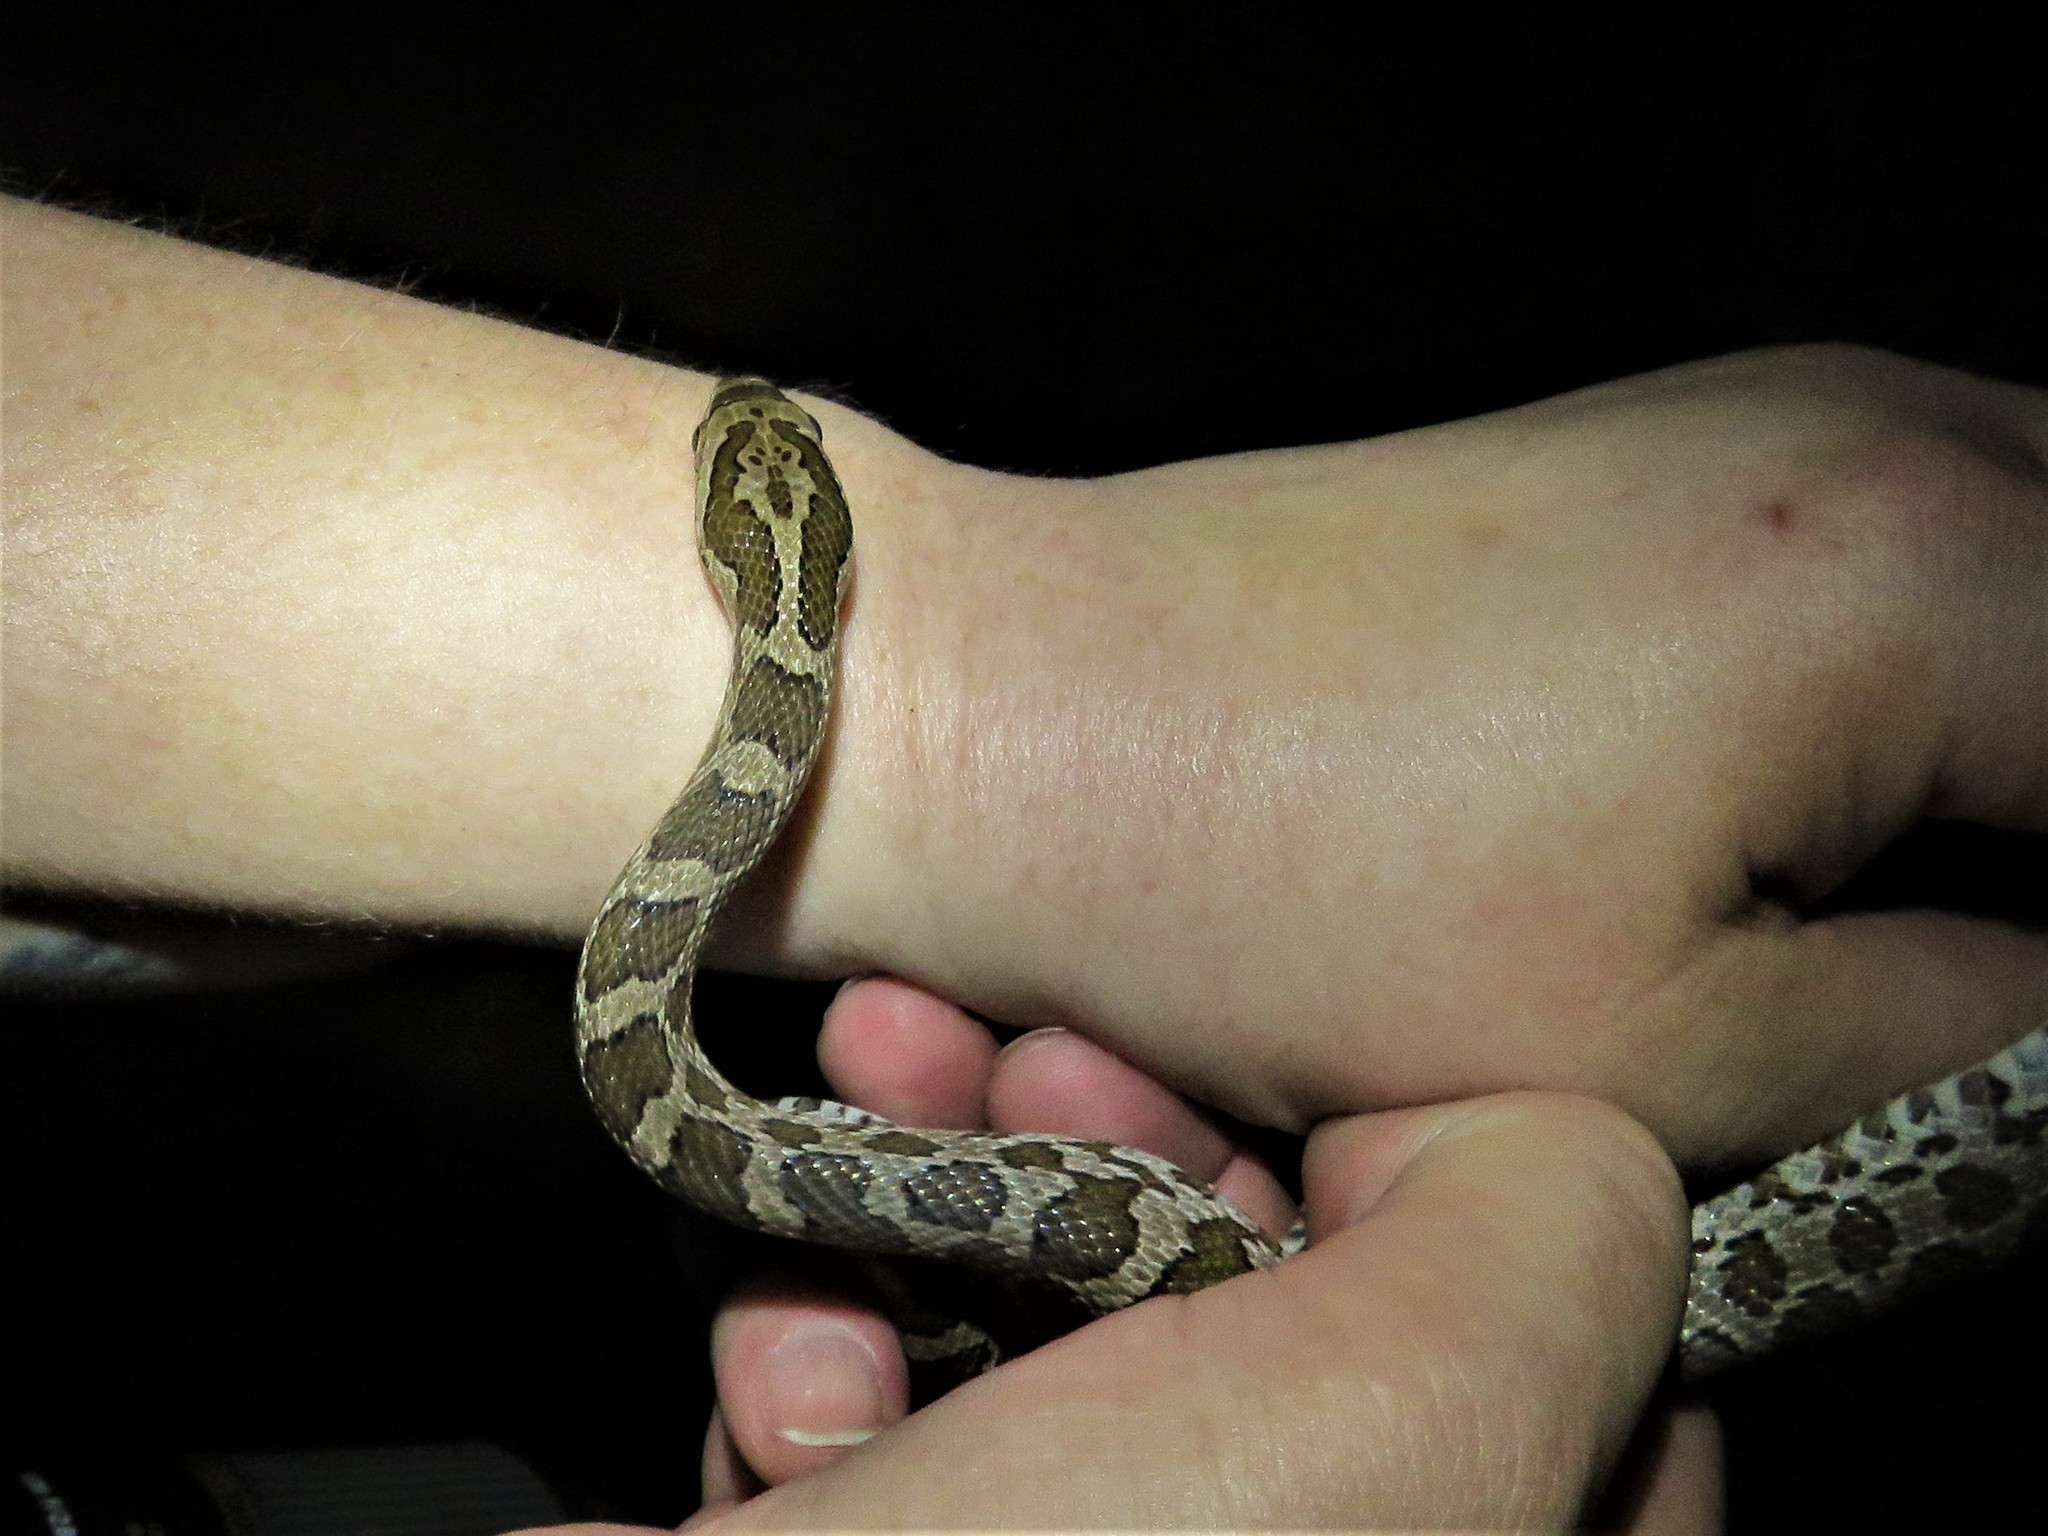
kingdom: Animalia
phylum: Chordata
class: Squamata
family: Colubridae
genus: Pantherophis
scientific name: Pantherophis emoryi
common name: Great plains rat snake
